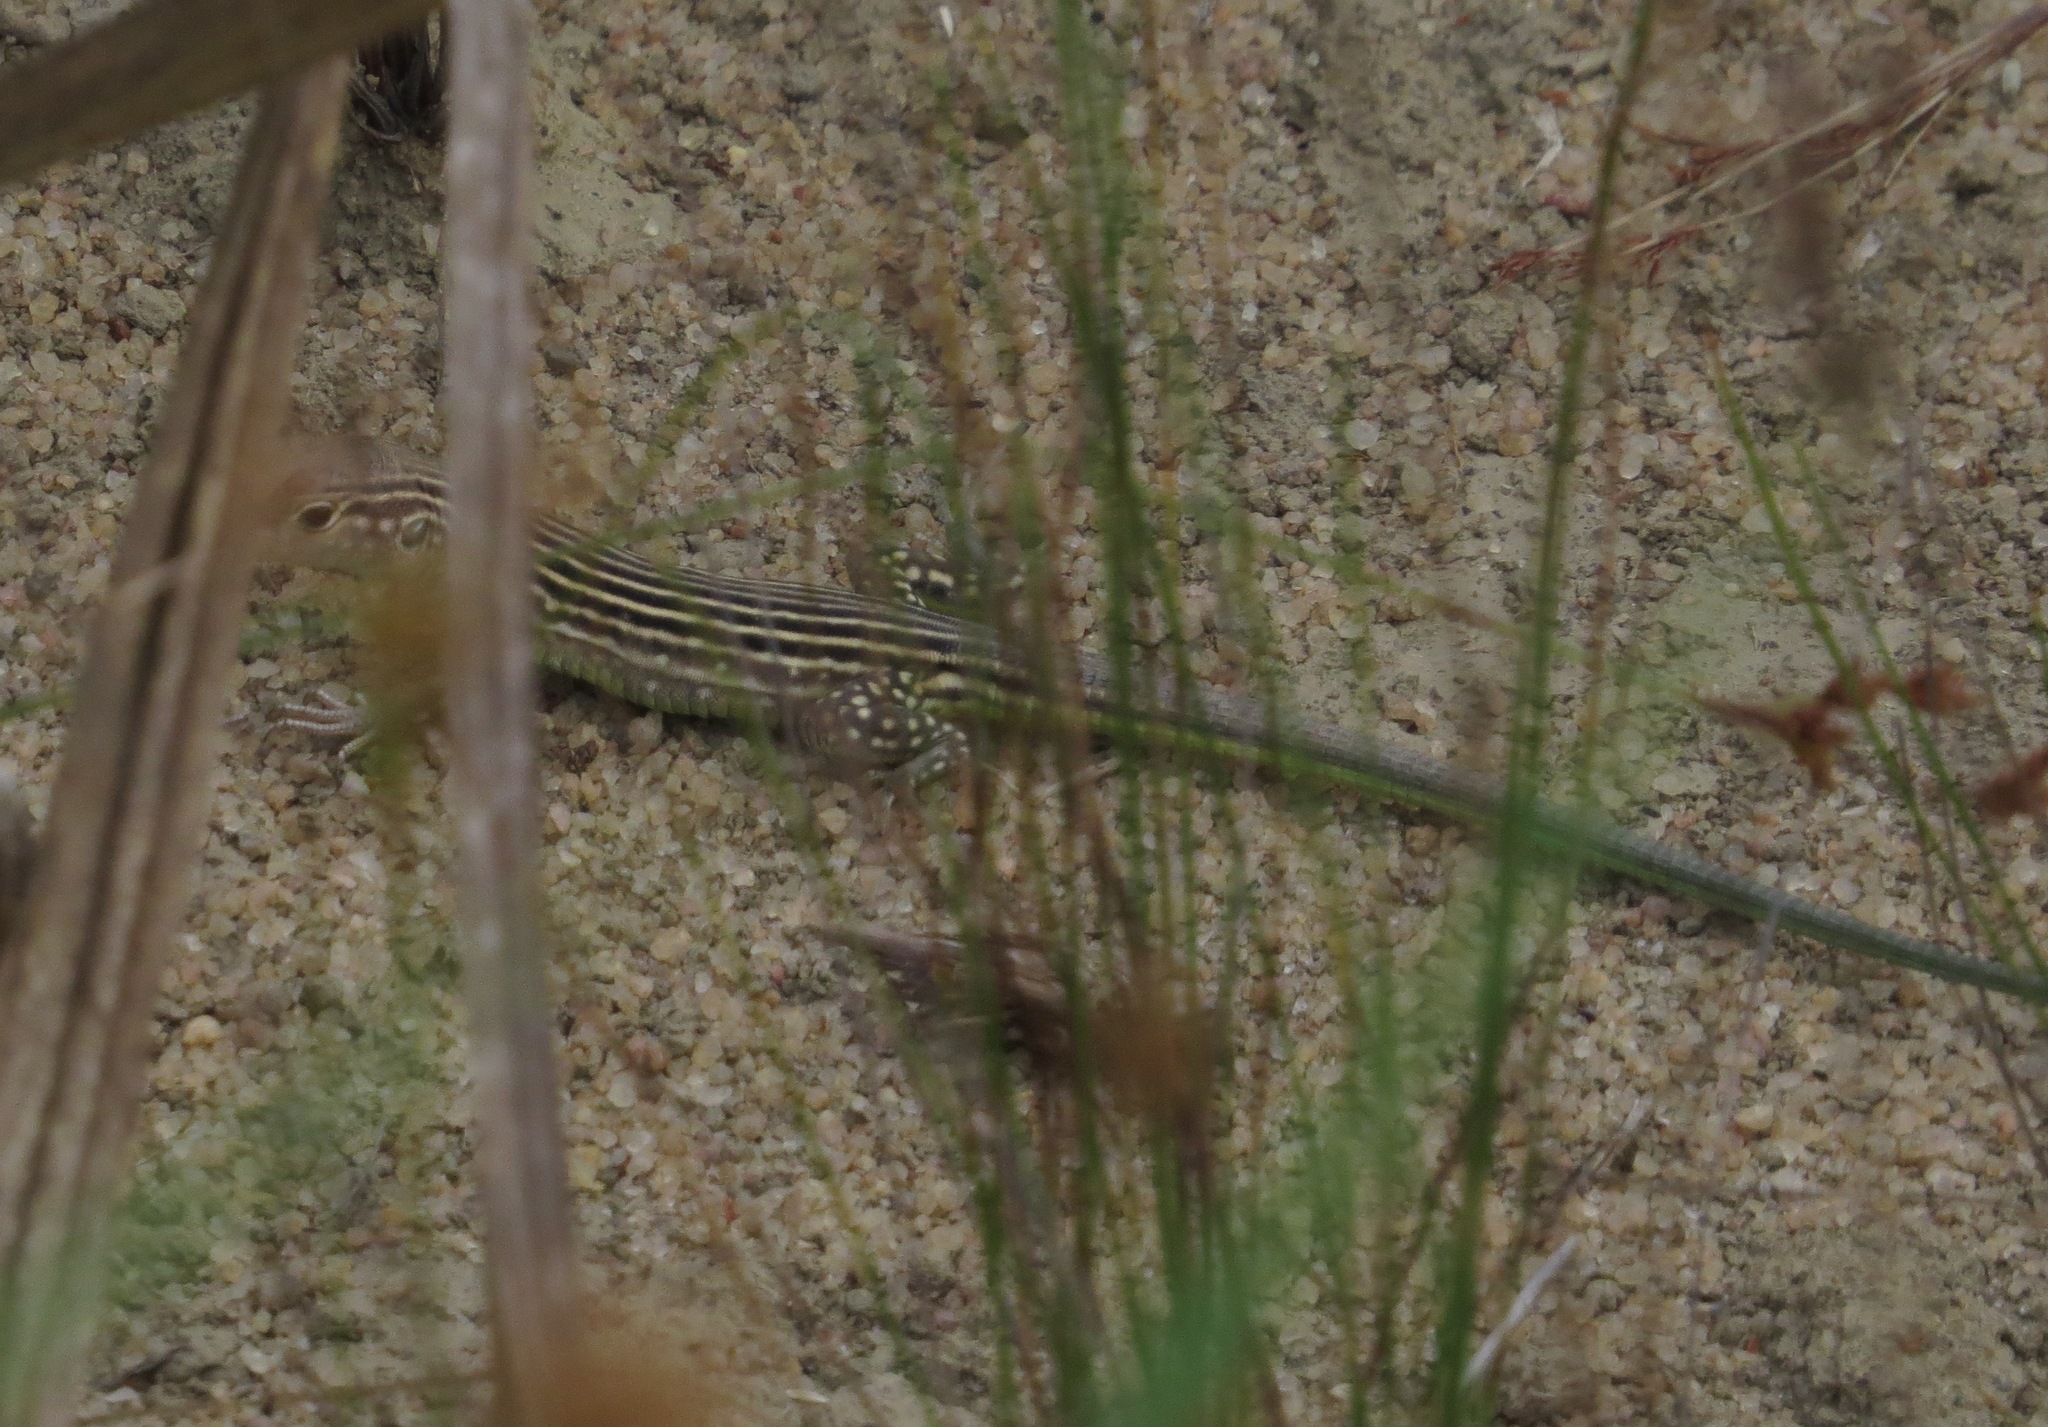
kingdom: Animalia
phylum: Chordata
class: Squamata
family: Teiidae
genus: Cnemidophorus
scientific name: Cnemidophorus lemniscatus
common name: Rainbow whiptail
